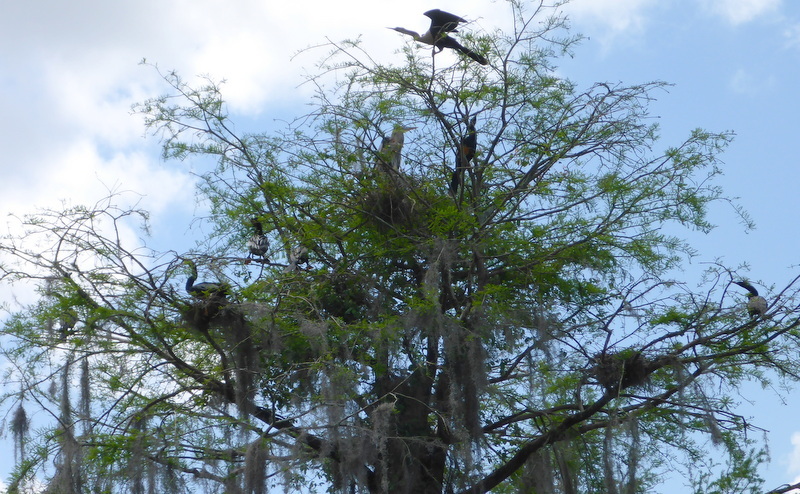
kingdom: Animalia
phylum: Chordata
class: Aves
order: Suliformes
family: Anhingidae
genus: Anhinga
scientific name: Anhinga anhinga
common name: Anhinga
